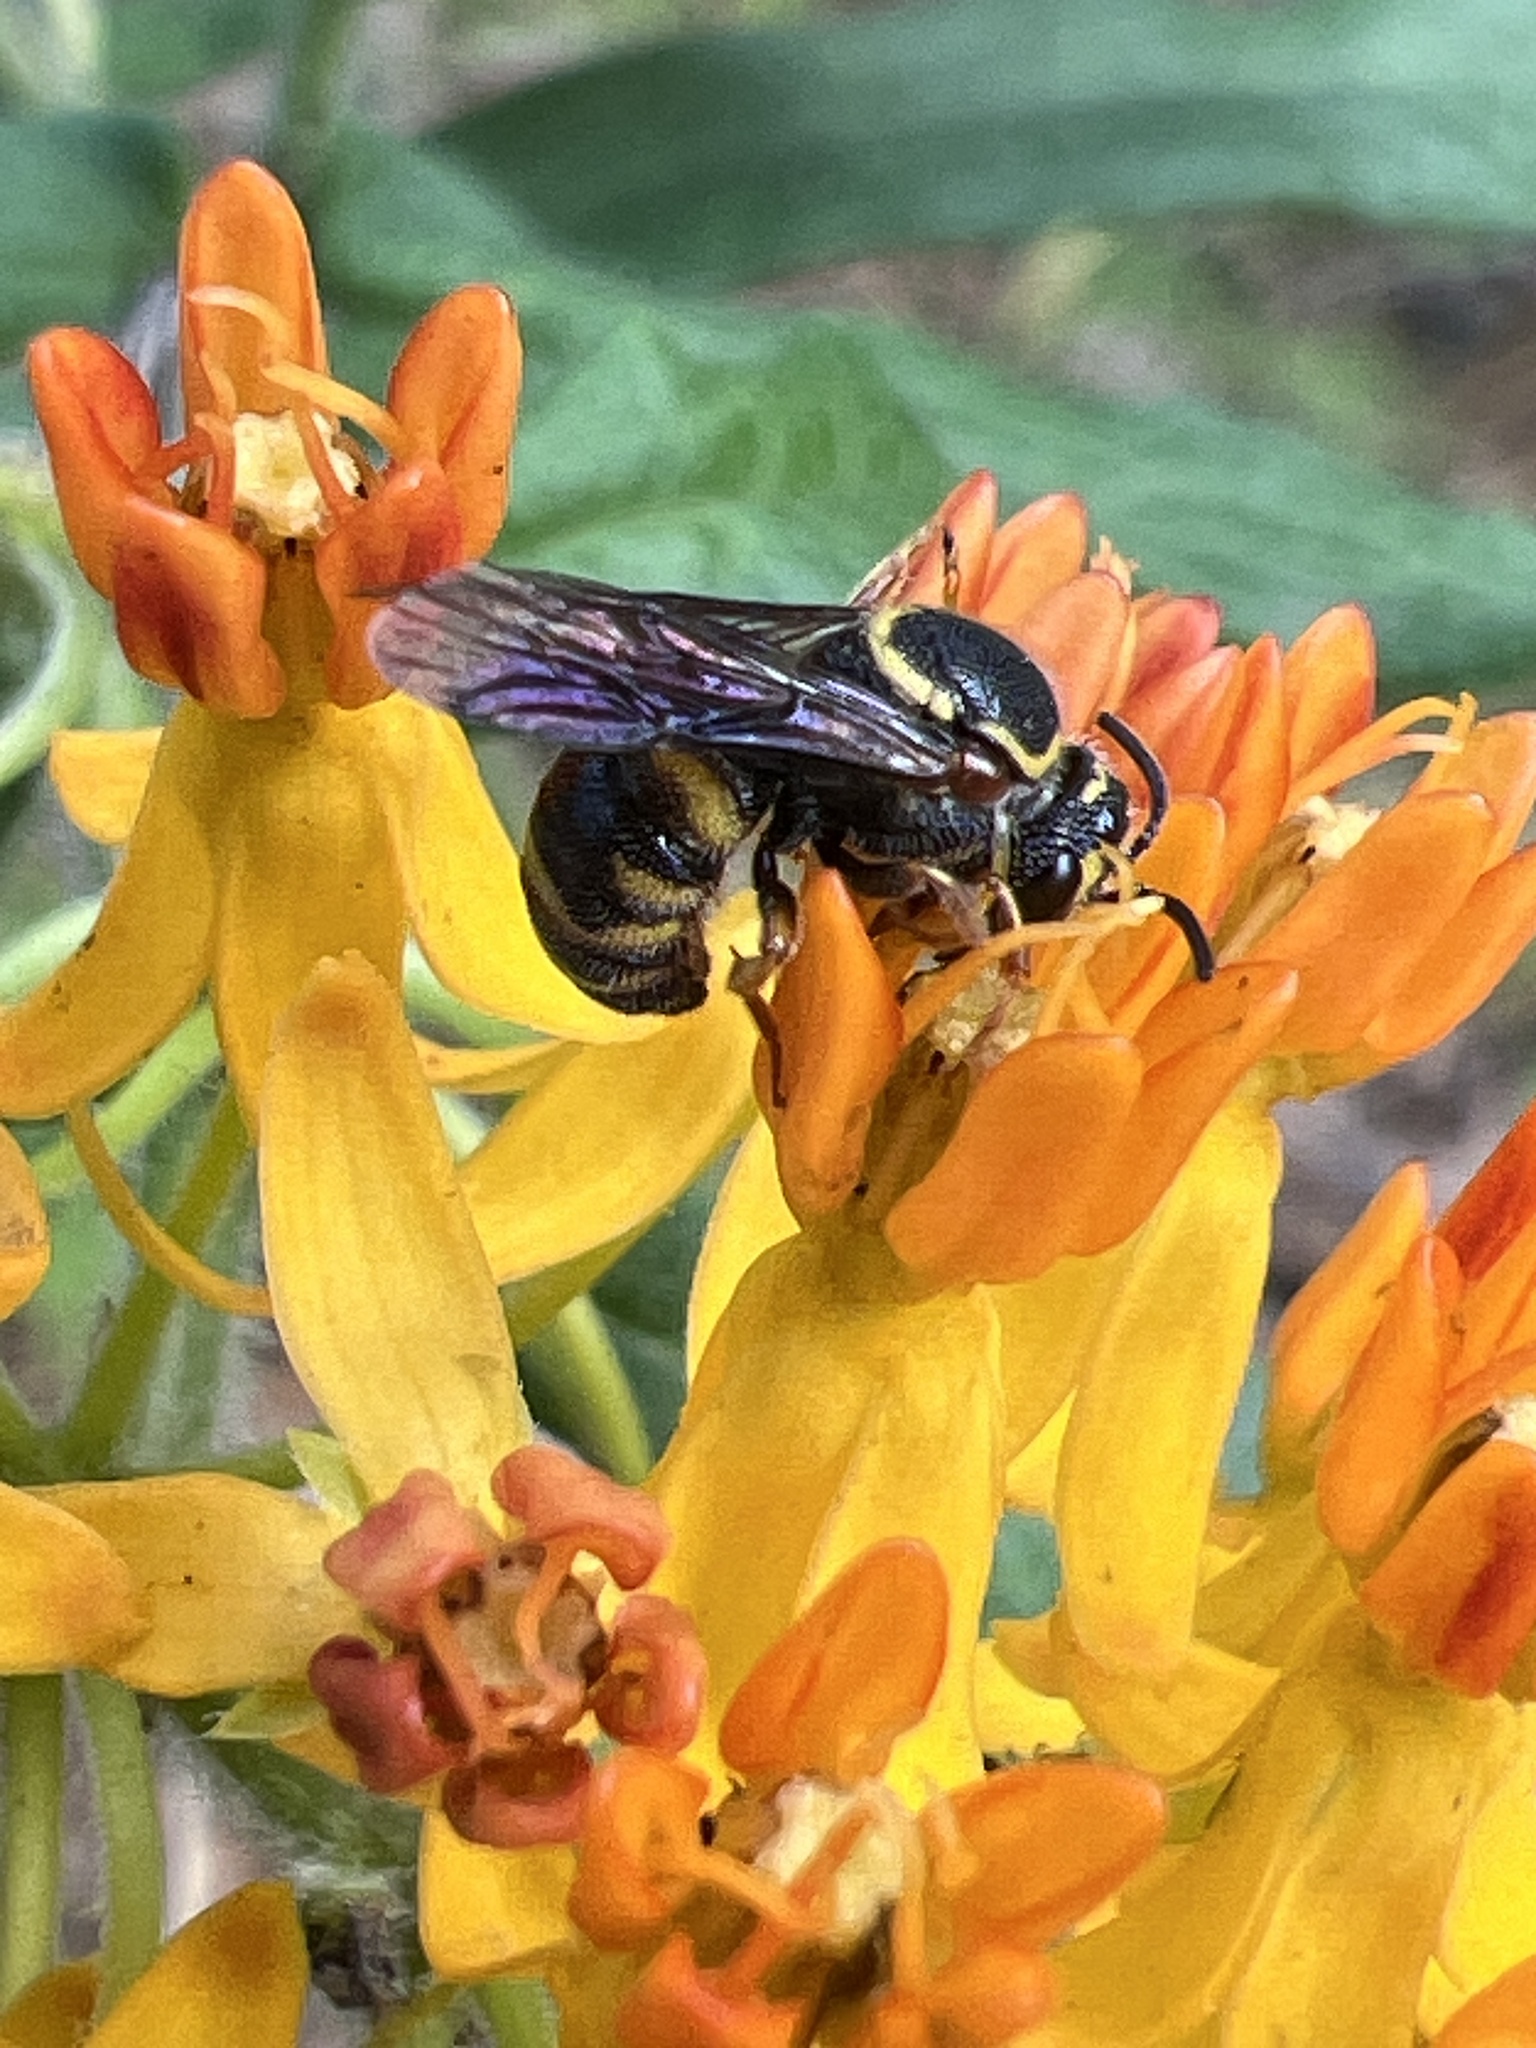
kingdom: Animalia
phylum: Arthropoda
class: Insecta
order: Hymenoptera
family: Megachilidae
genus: Stelis
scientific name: Stelis louisae
